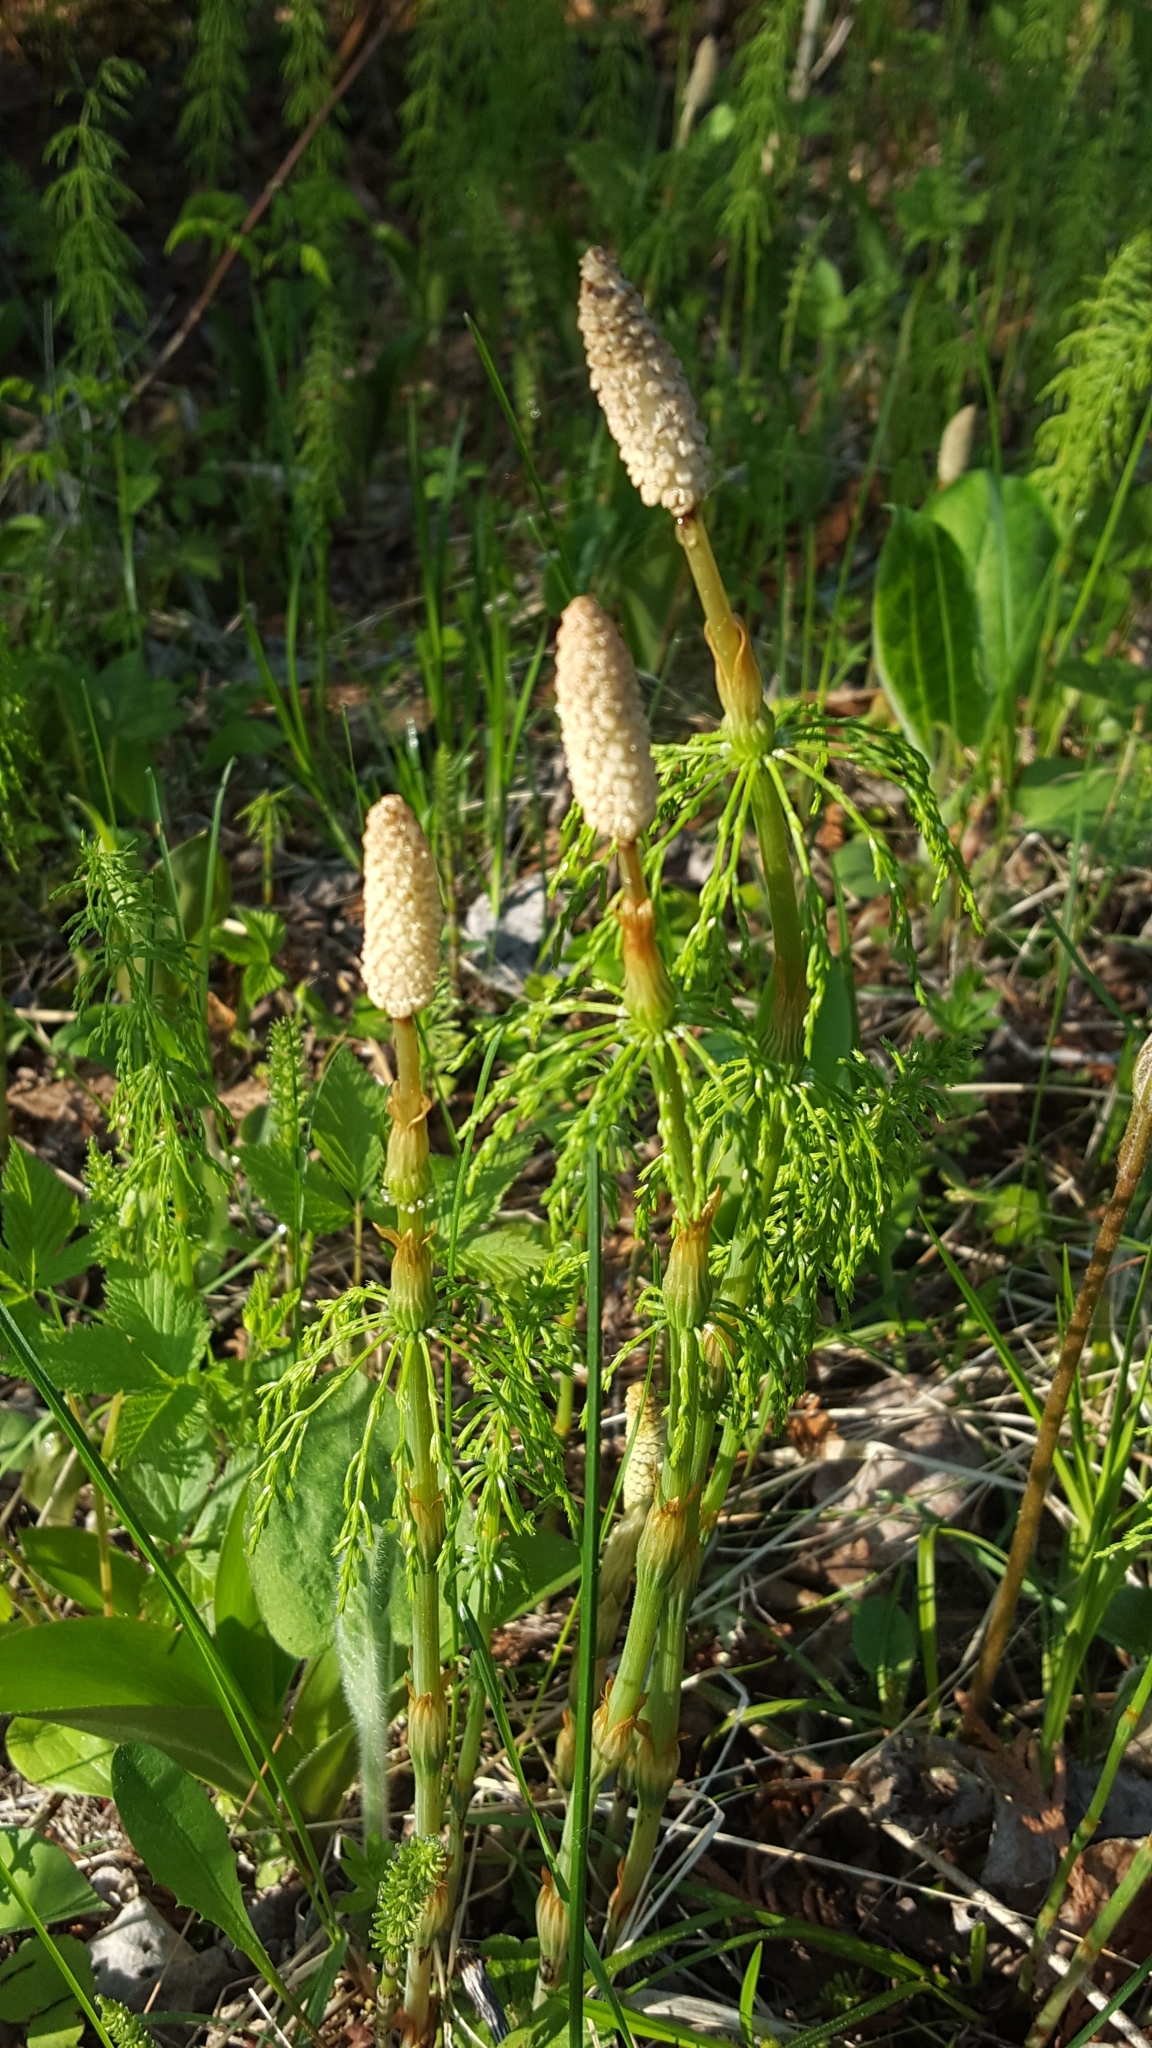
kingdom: Plantae
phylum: Tracheophyta
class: Polypodiopsida
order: Equisetales
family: Equisetaceae
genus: Equisetum
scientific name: Equisetum sylvaticum
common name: Wood horsetail
